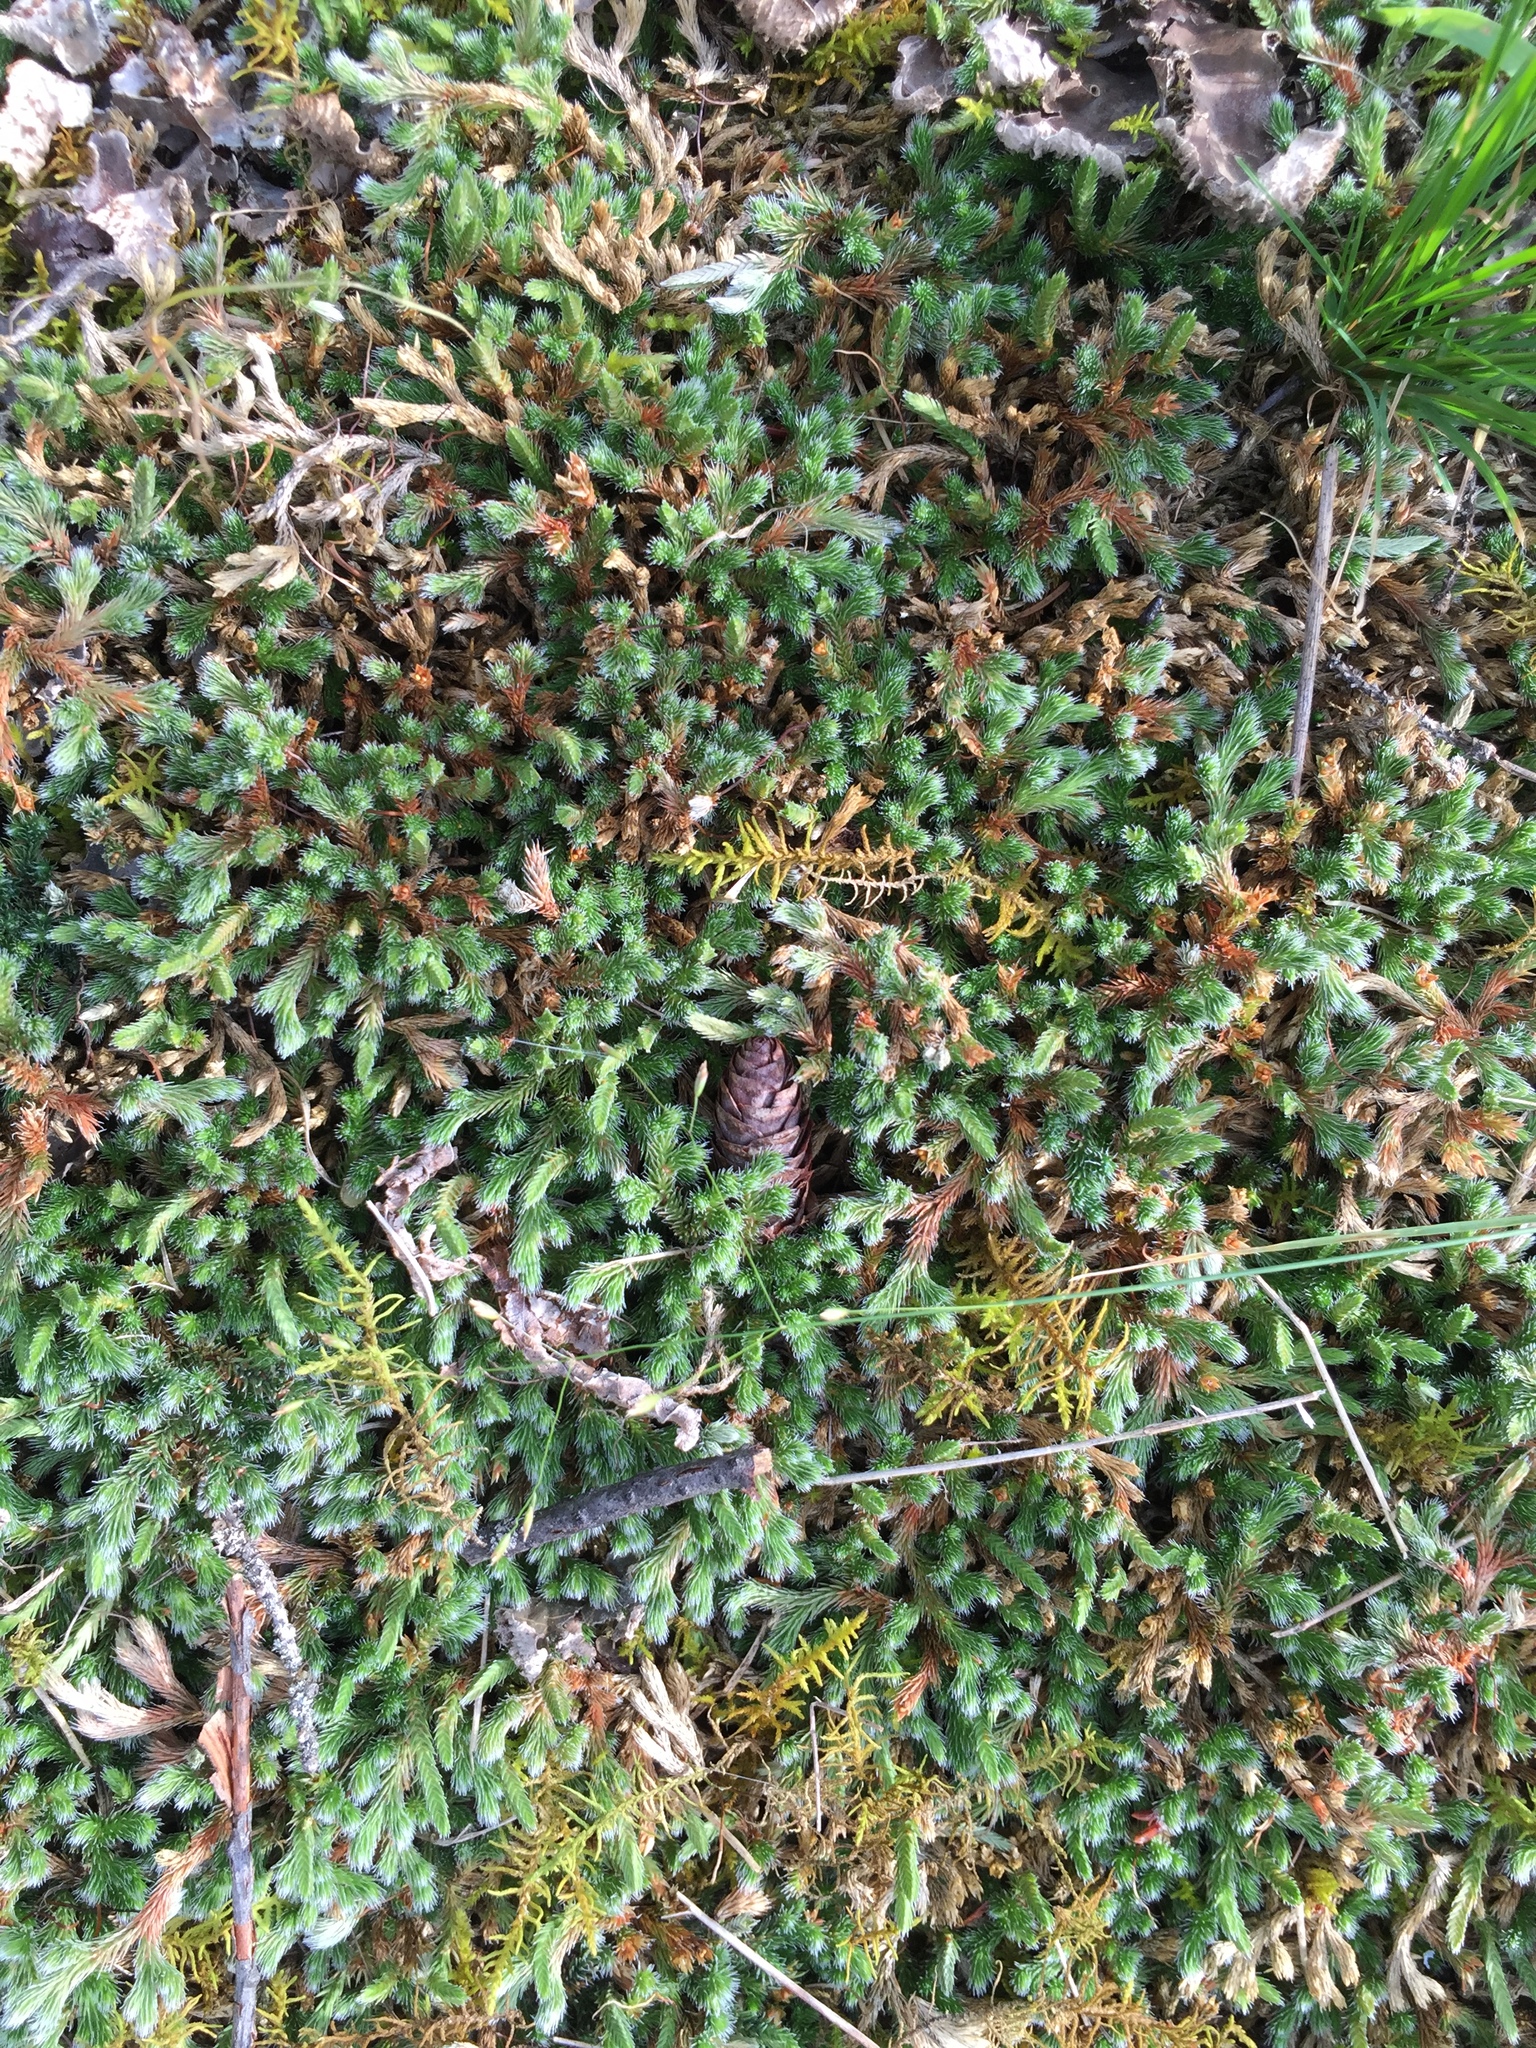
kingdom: Plantae
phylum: Tracheophyta
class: Lycopodiopsida
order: Selaginellales
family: Selaginellaceae
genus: Selaginella
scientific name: Selaginella rupestris
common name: Dwarf spikemoss
